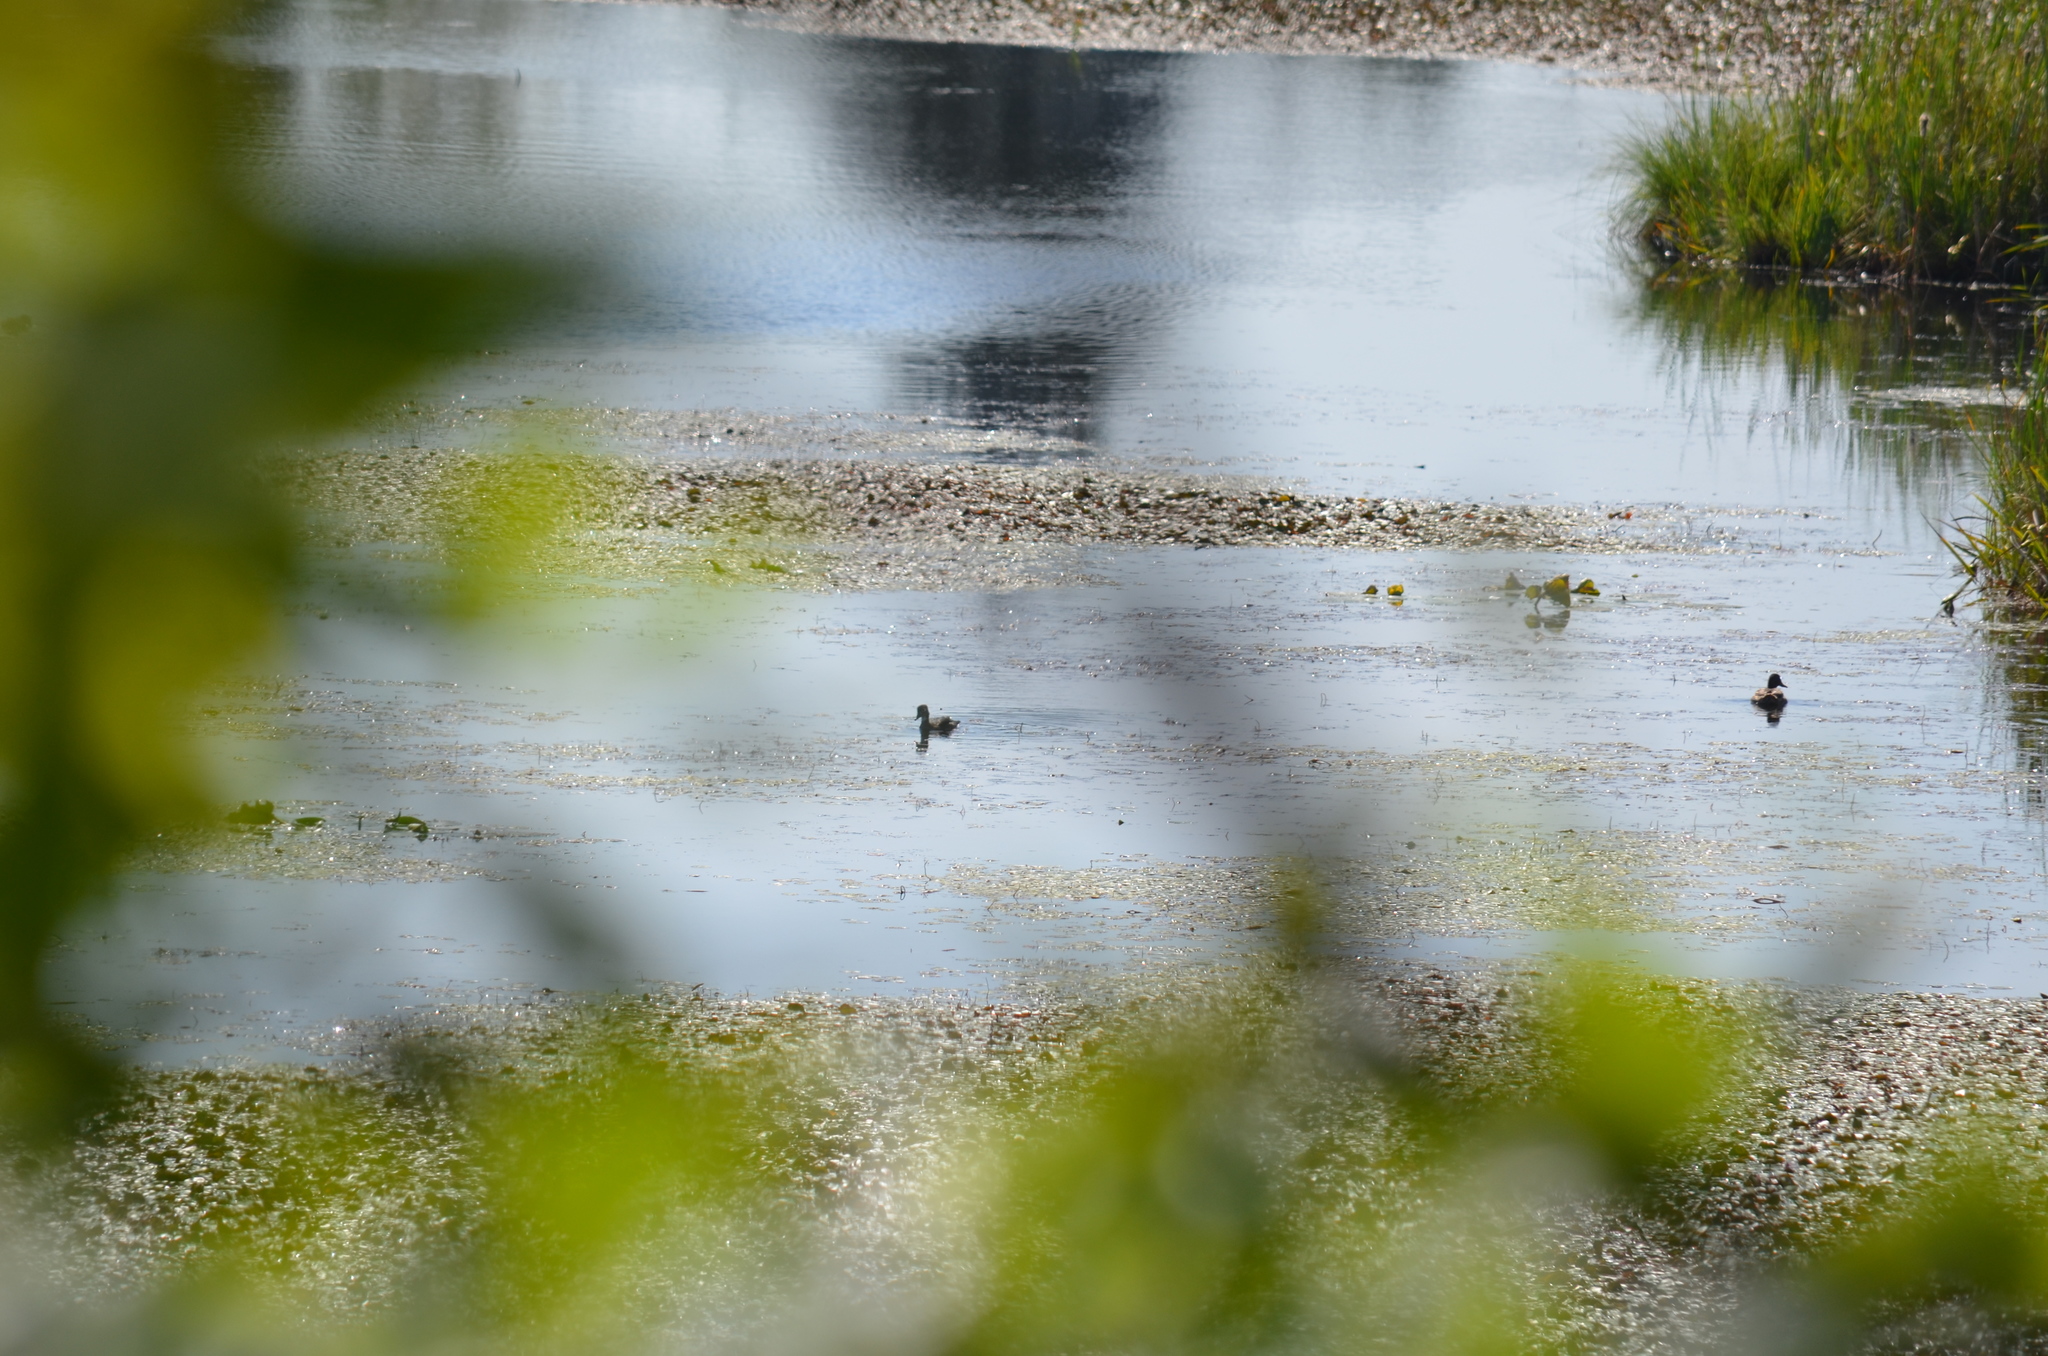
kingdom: Animalia
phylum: Chordata
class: Aves
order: Anseriformes
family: Anatidae
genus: Aix
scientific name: Aix sponsa
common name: Wood duck
